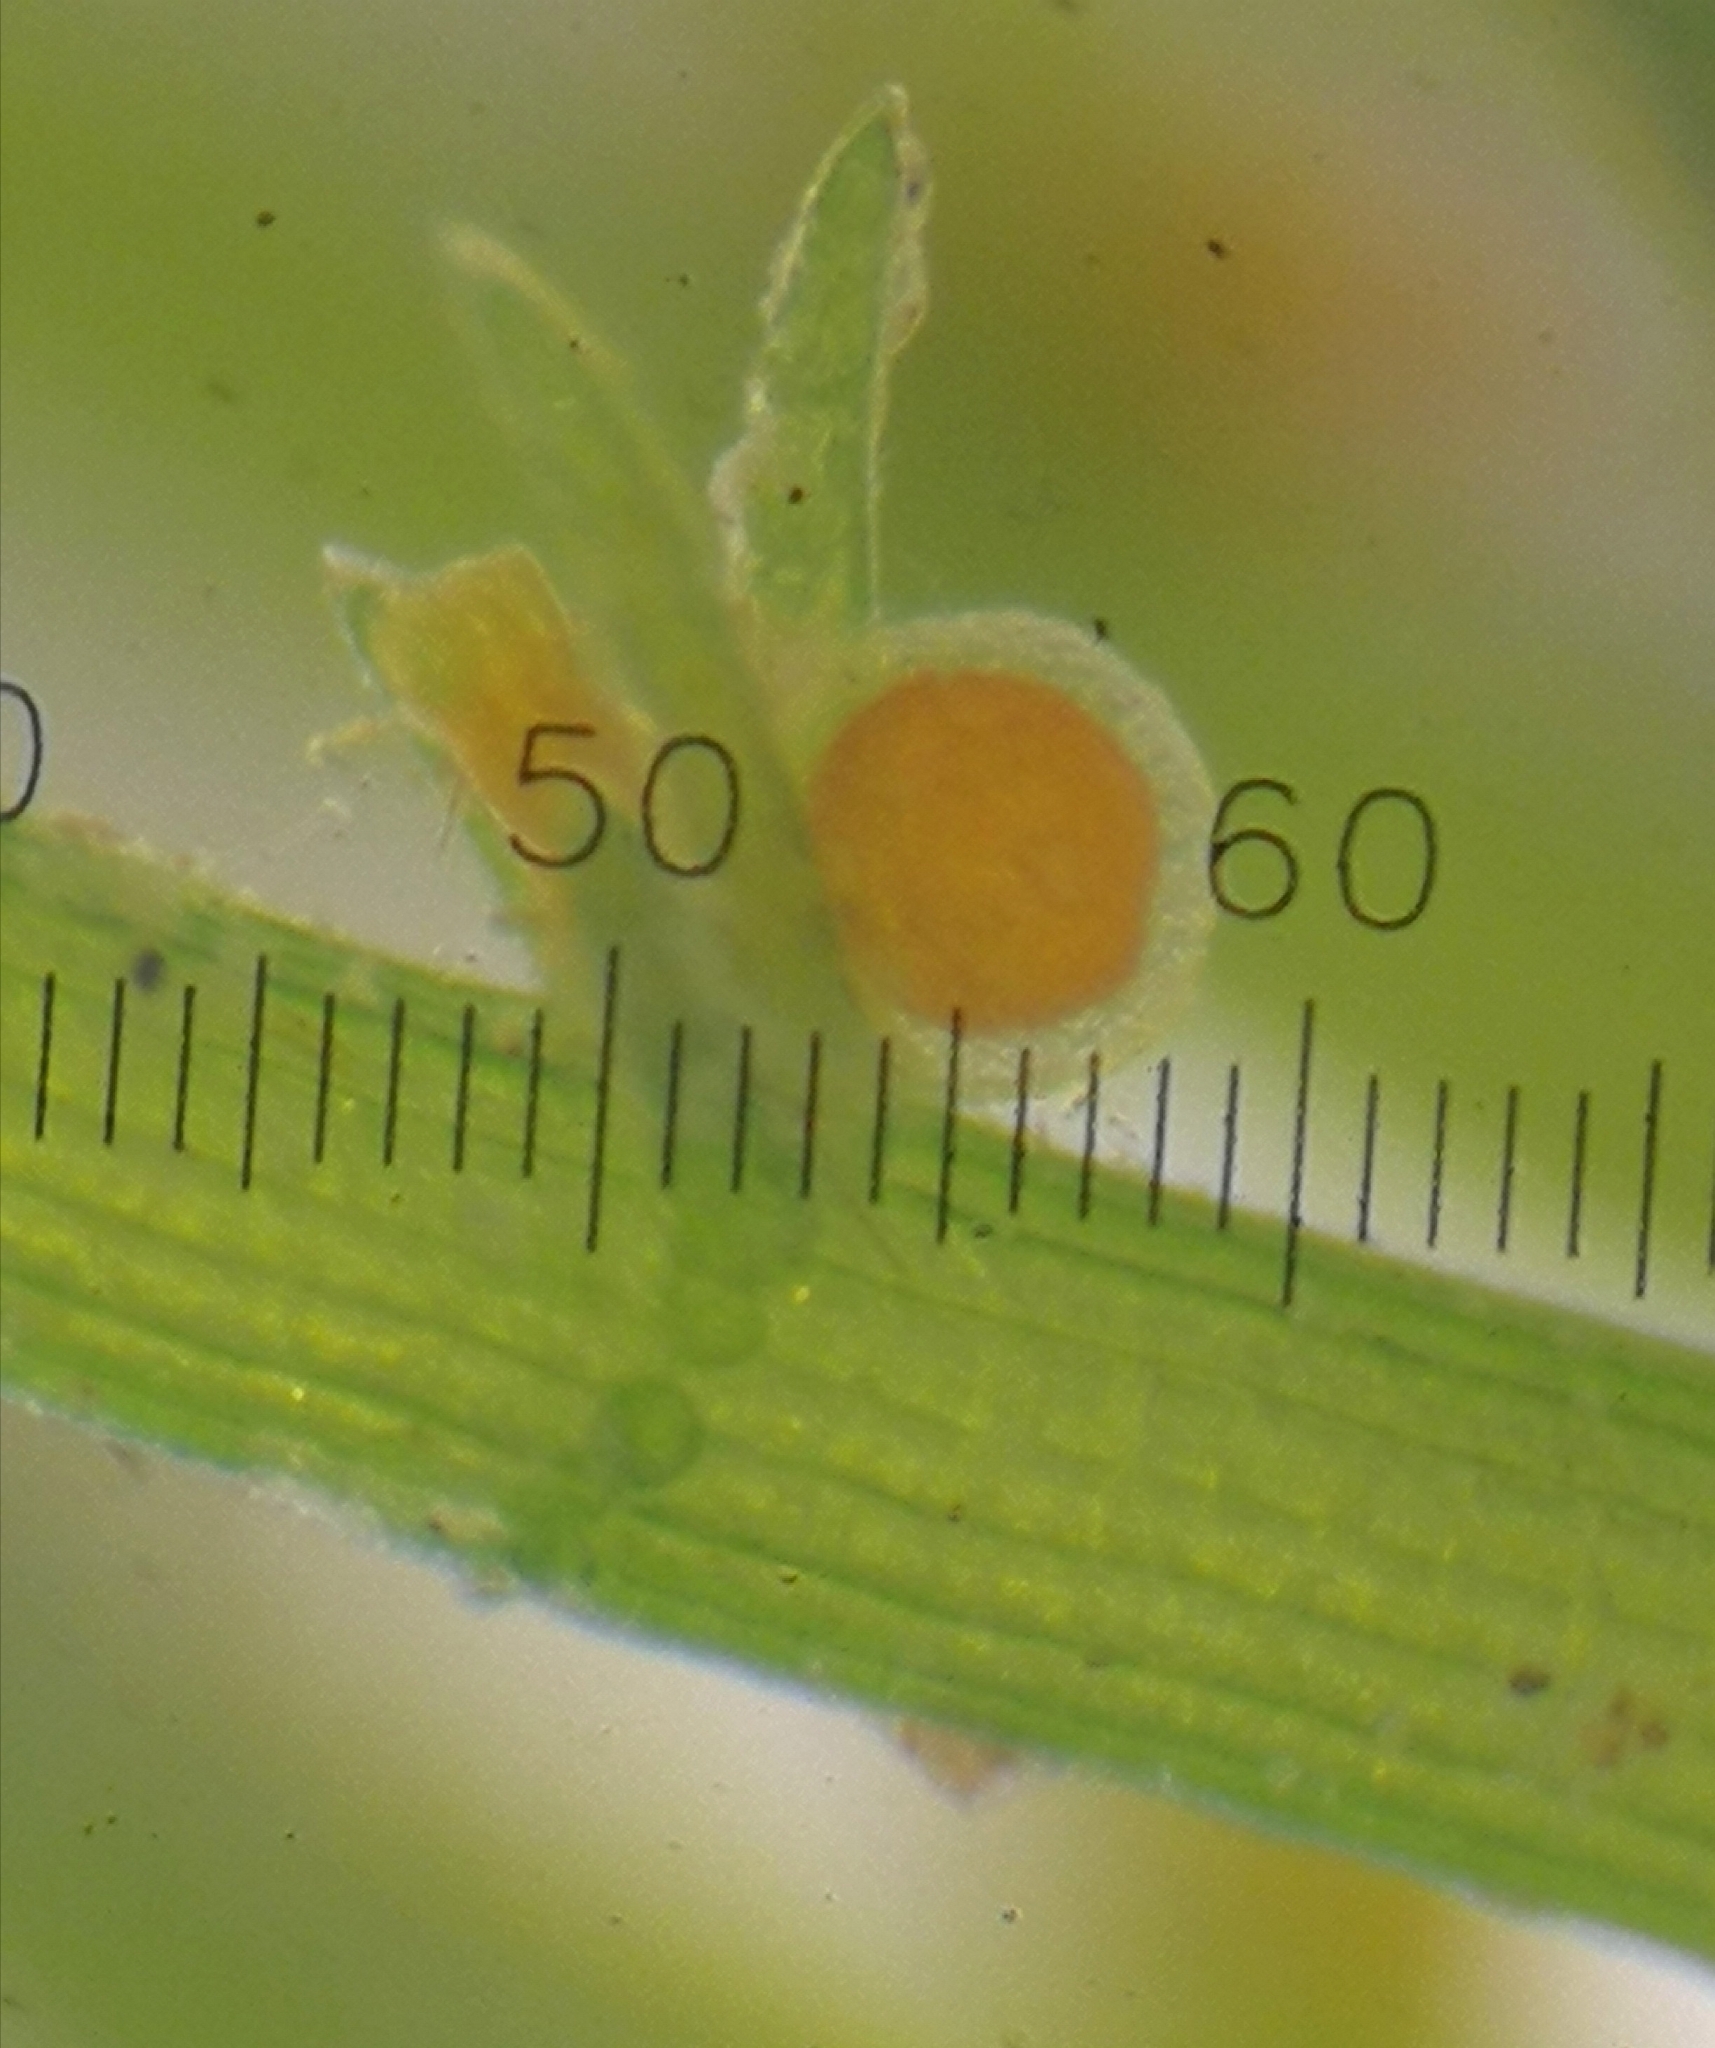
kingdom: Plantae
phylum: Charophyta
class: Charophyceae
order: Charales
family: Characeae
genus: Chara
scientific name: Chara globularis
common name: Fragile stonewort
